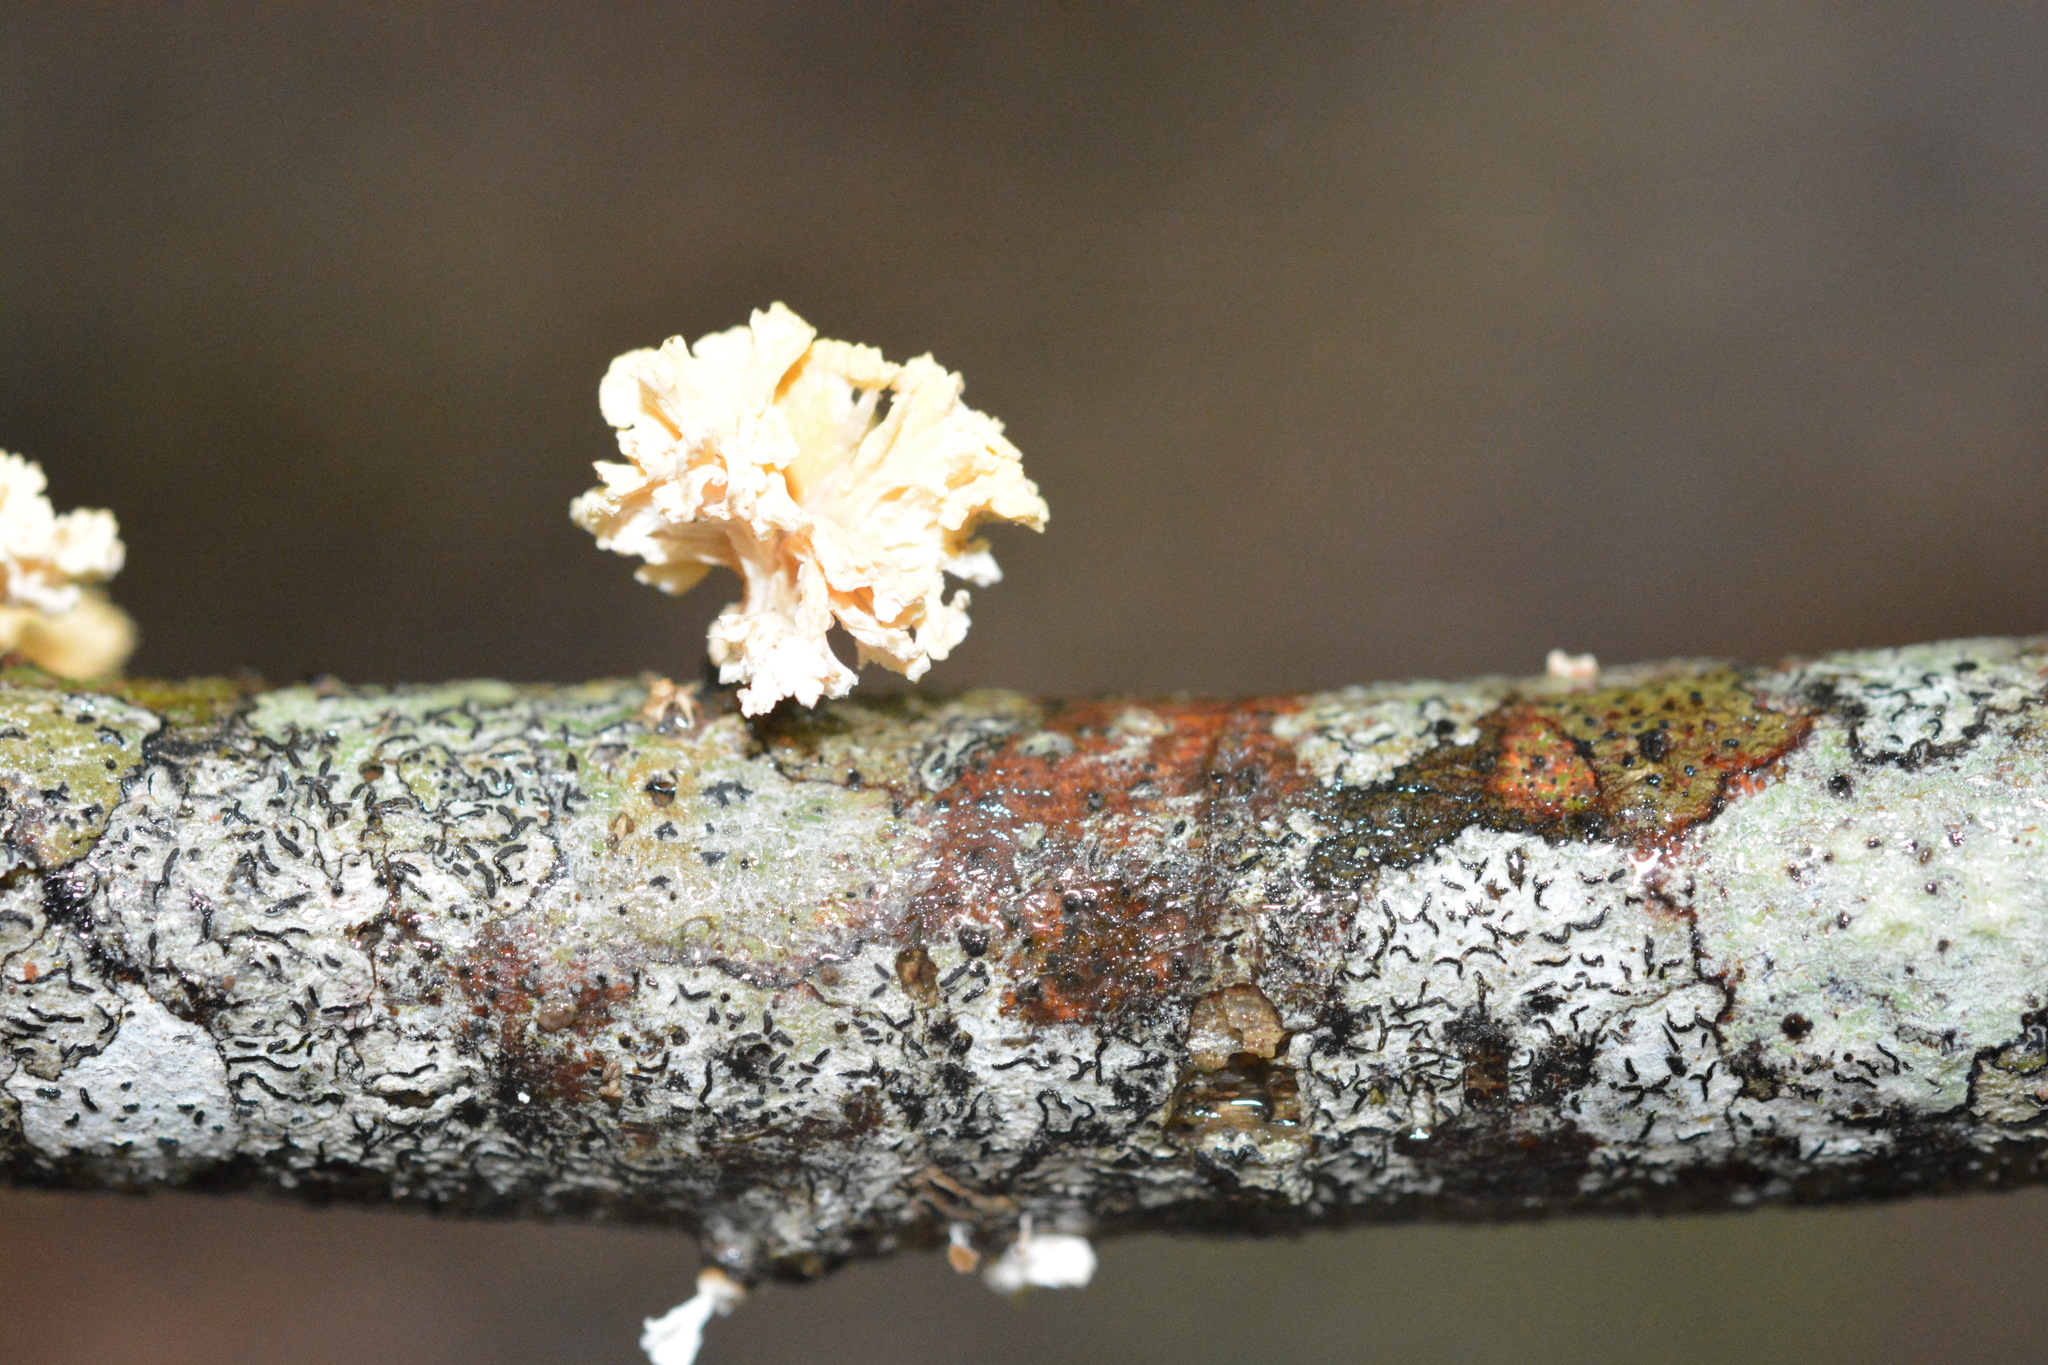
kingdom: Fungi
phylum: Ascomycota
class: Sordariomycetes
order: Xylariales
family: Xylariaceae
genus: Xylaria
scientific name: Xylaria cubensis
